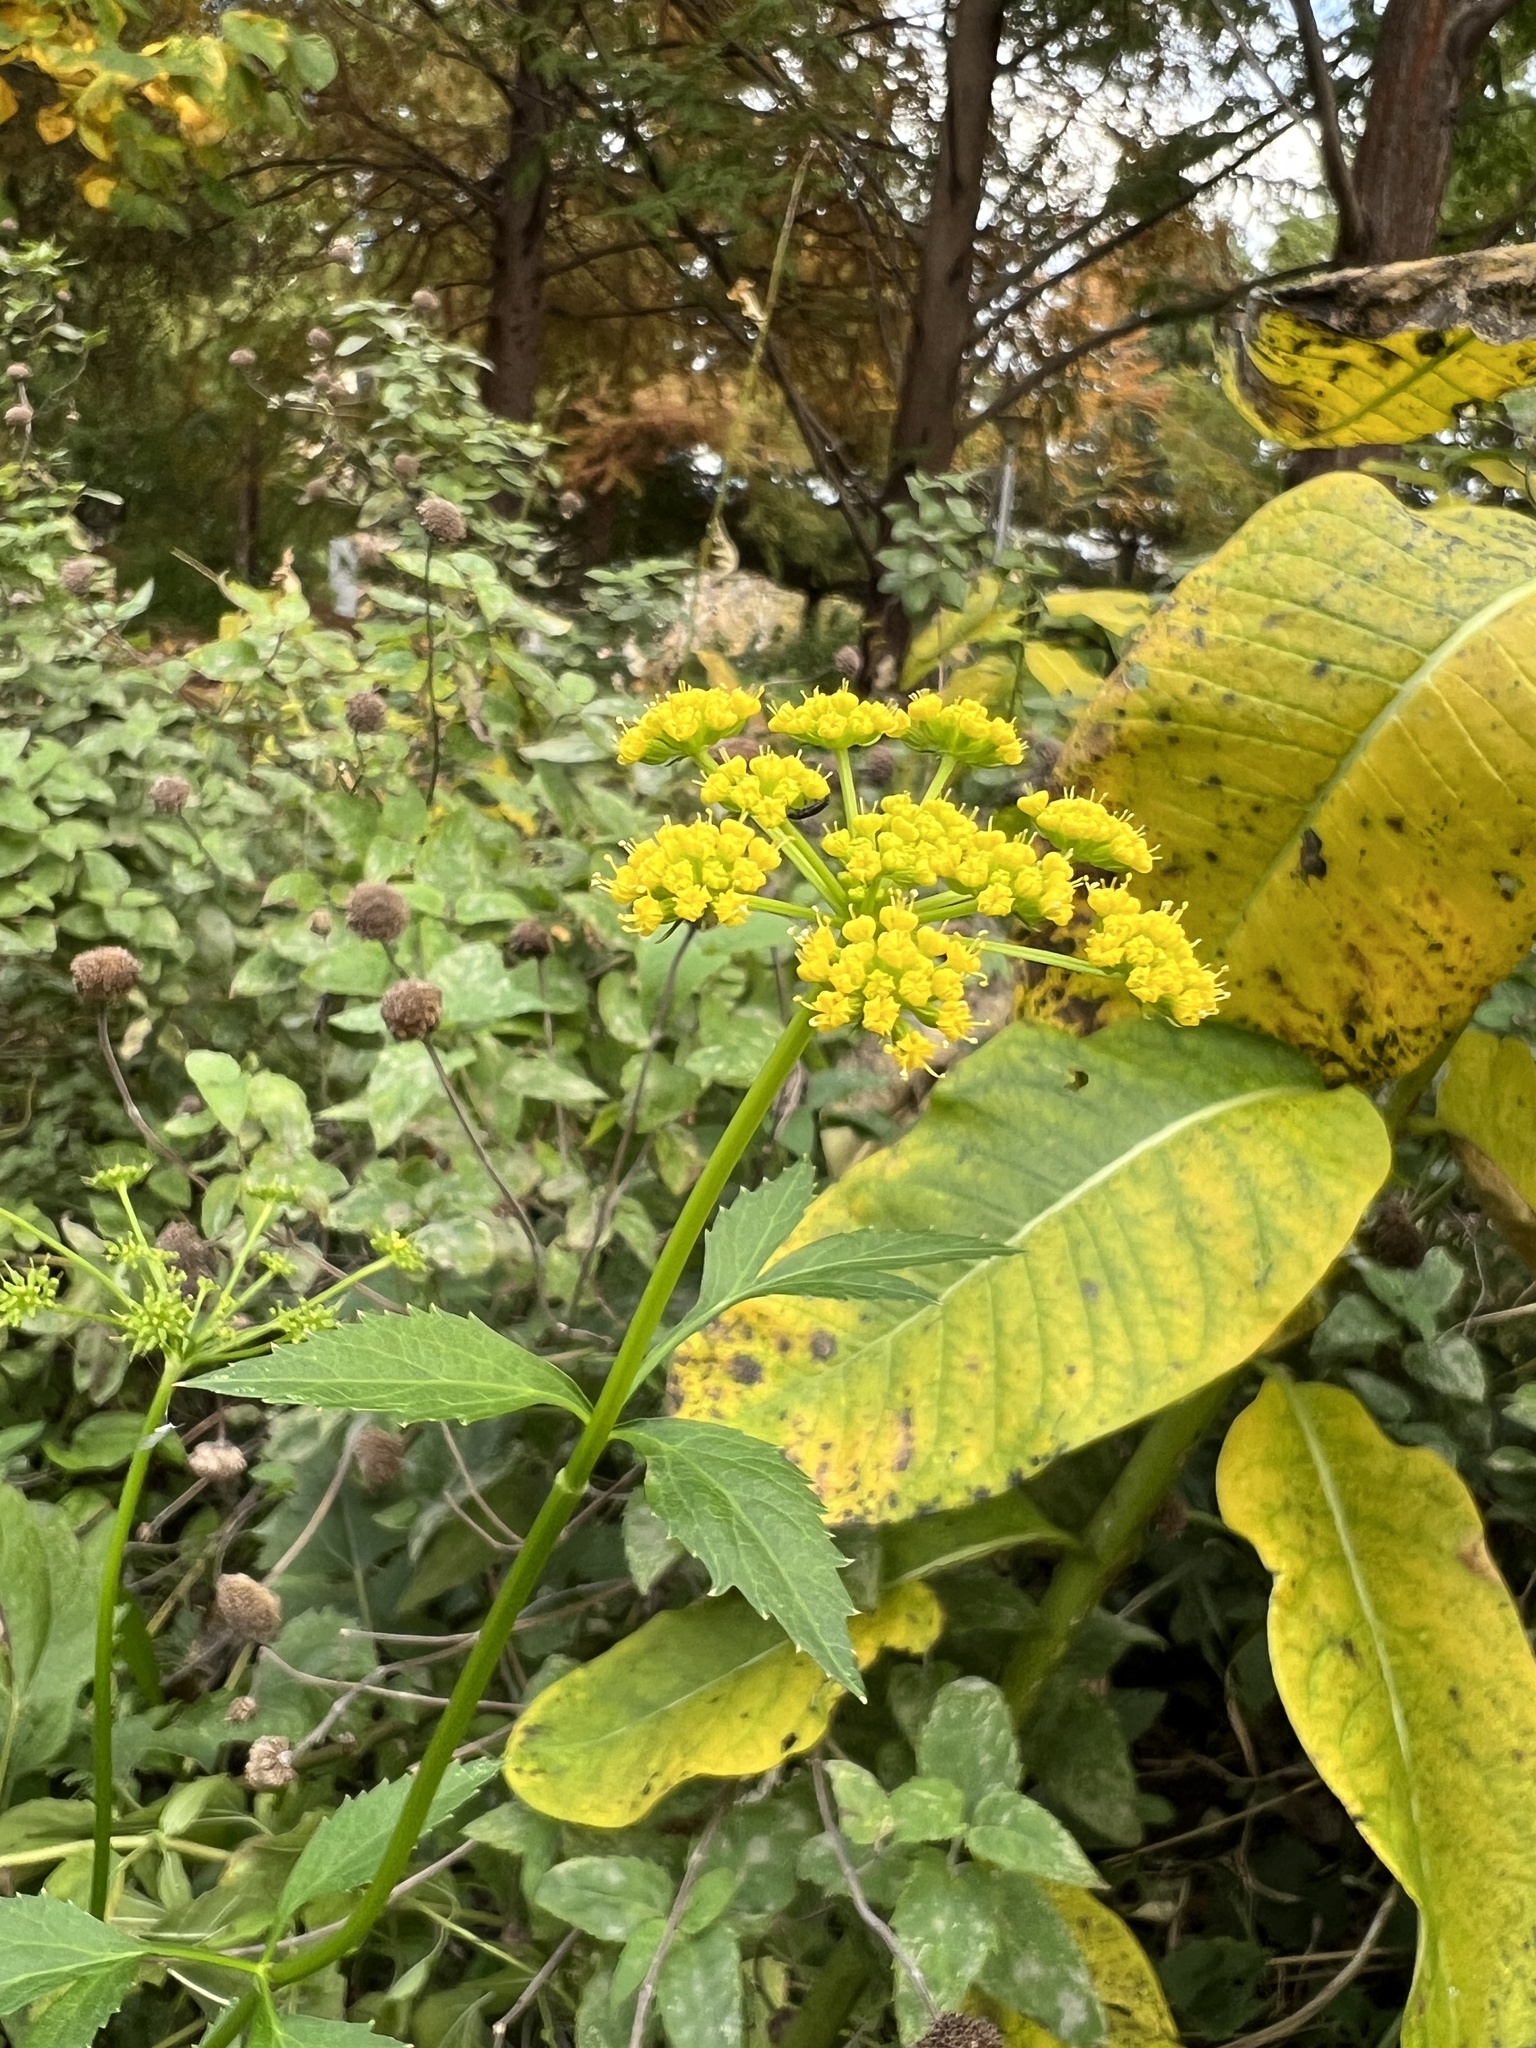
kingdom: Plantae
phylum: Tracheophyta
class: Magnoliopsida
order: Apiales
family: Apiaceae
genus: Zizia
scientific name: Zizia aurea
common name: Golden alexanders
